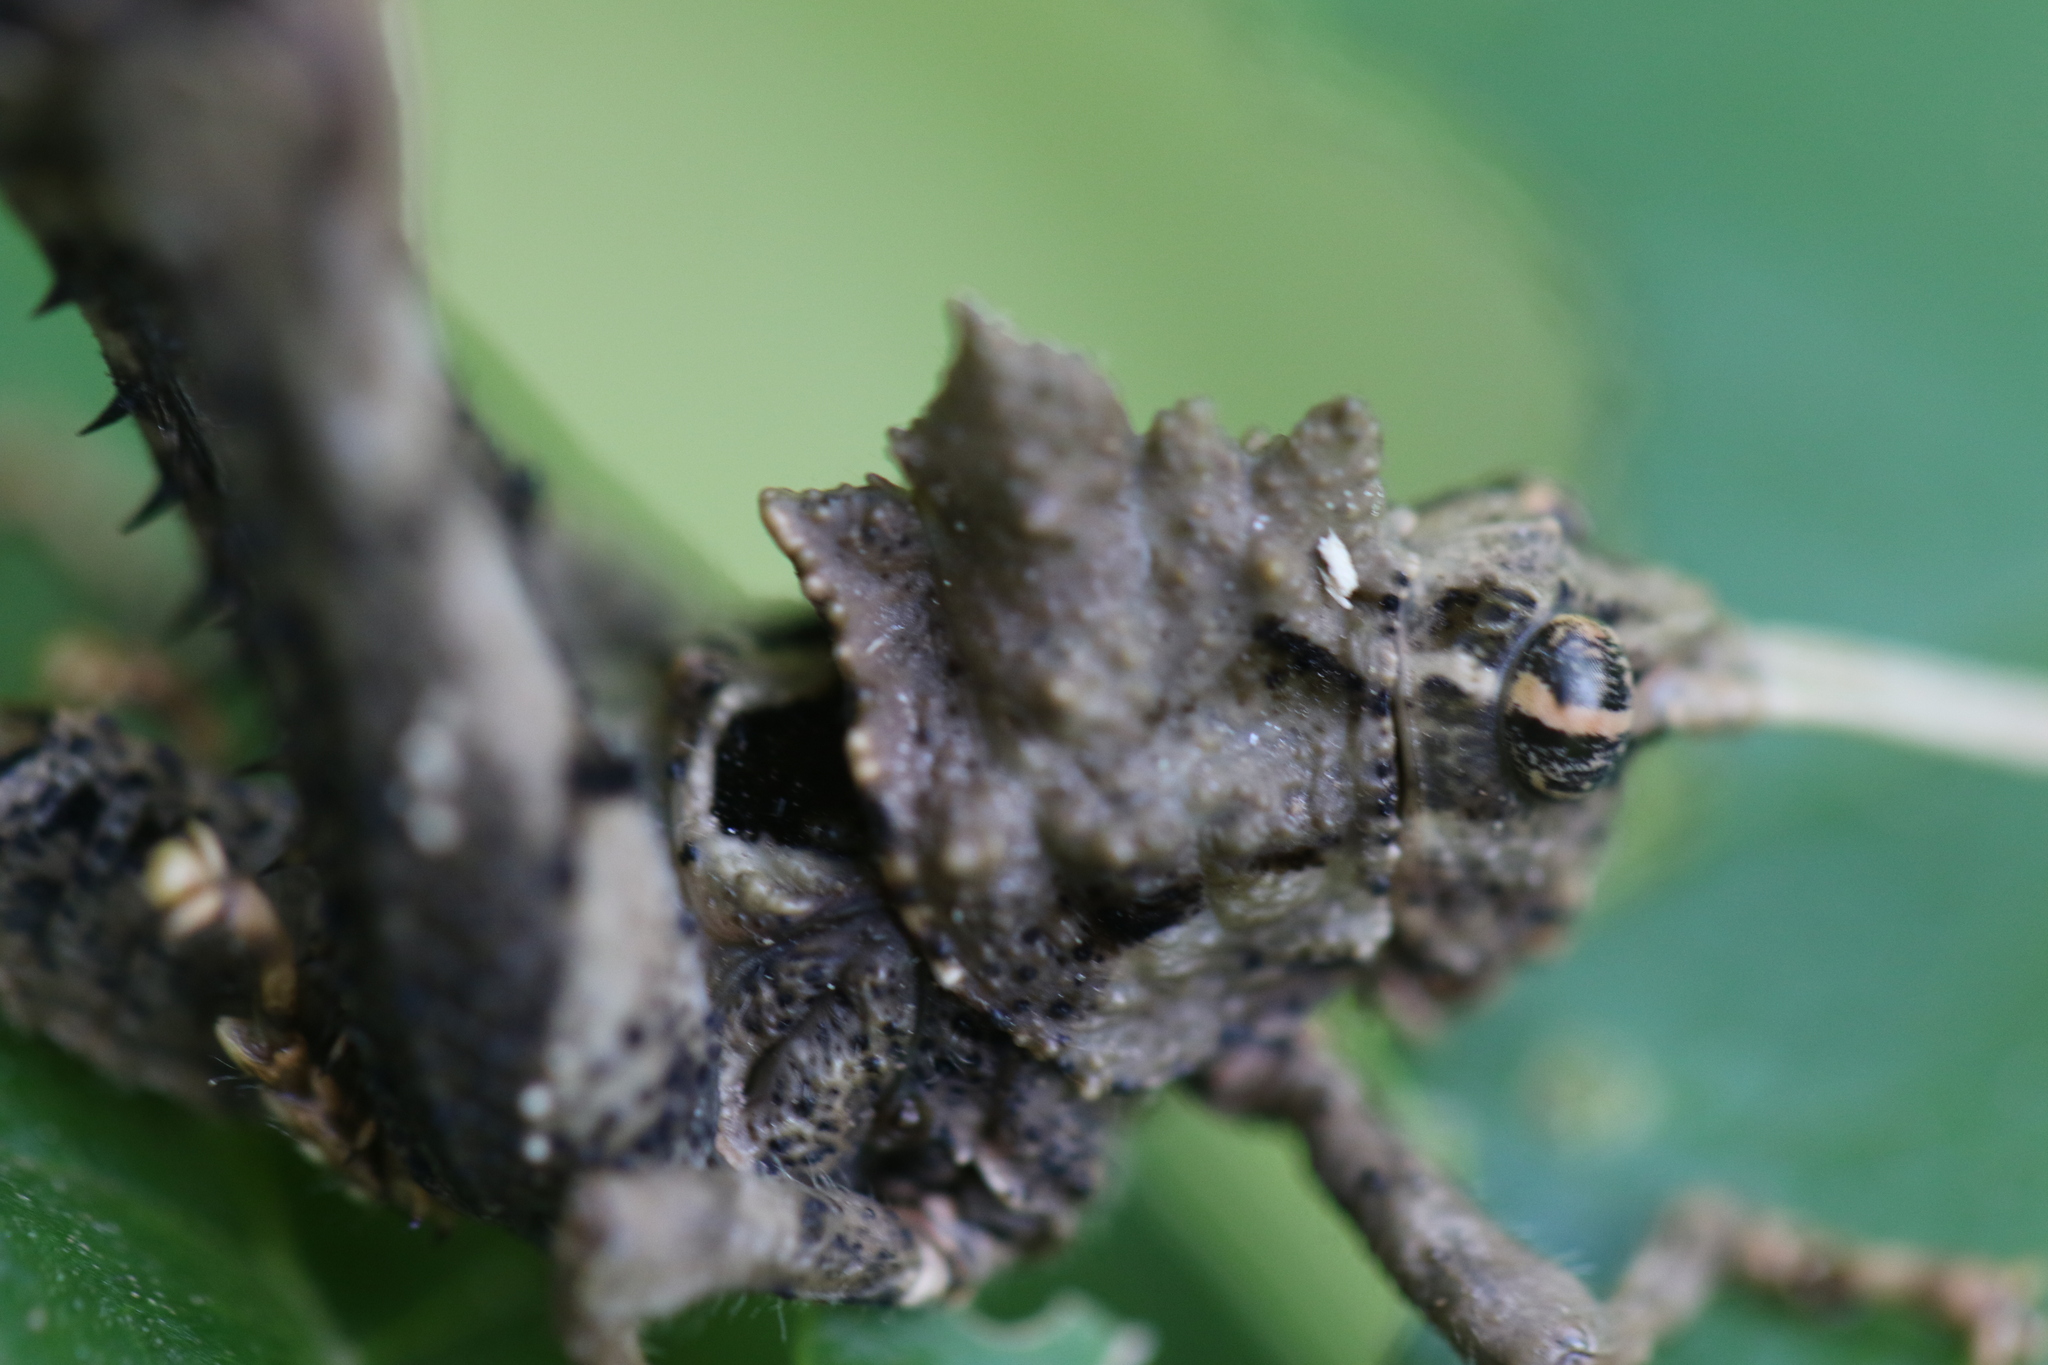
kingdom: Animalia
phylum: Arthropoda
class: Insecta
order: Orthoptera
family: Acrididae
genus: Pycnosarcus
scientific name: Pycnosarcus atavus
